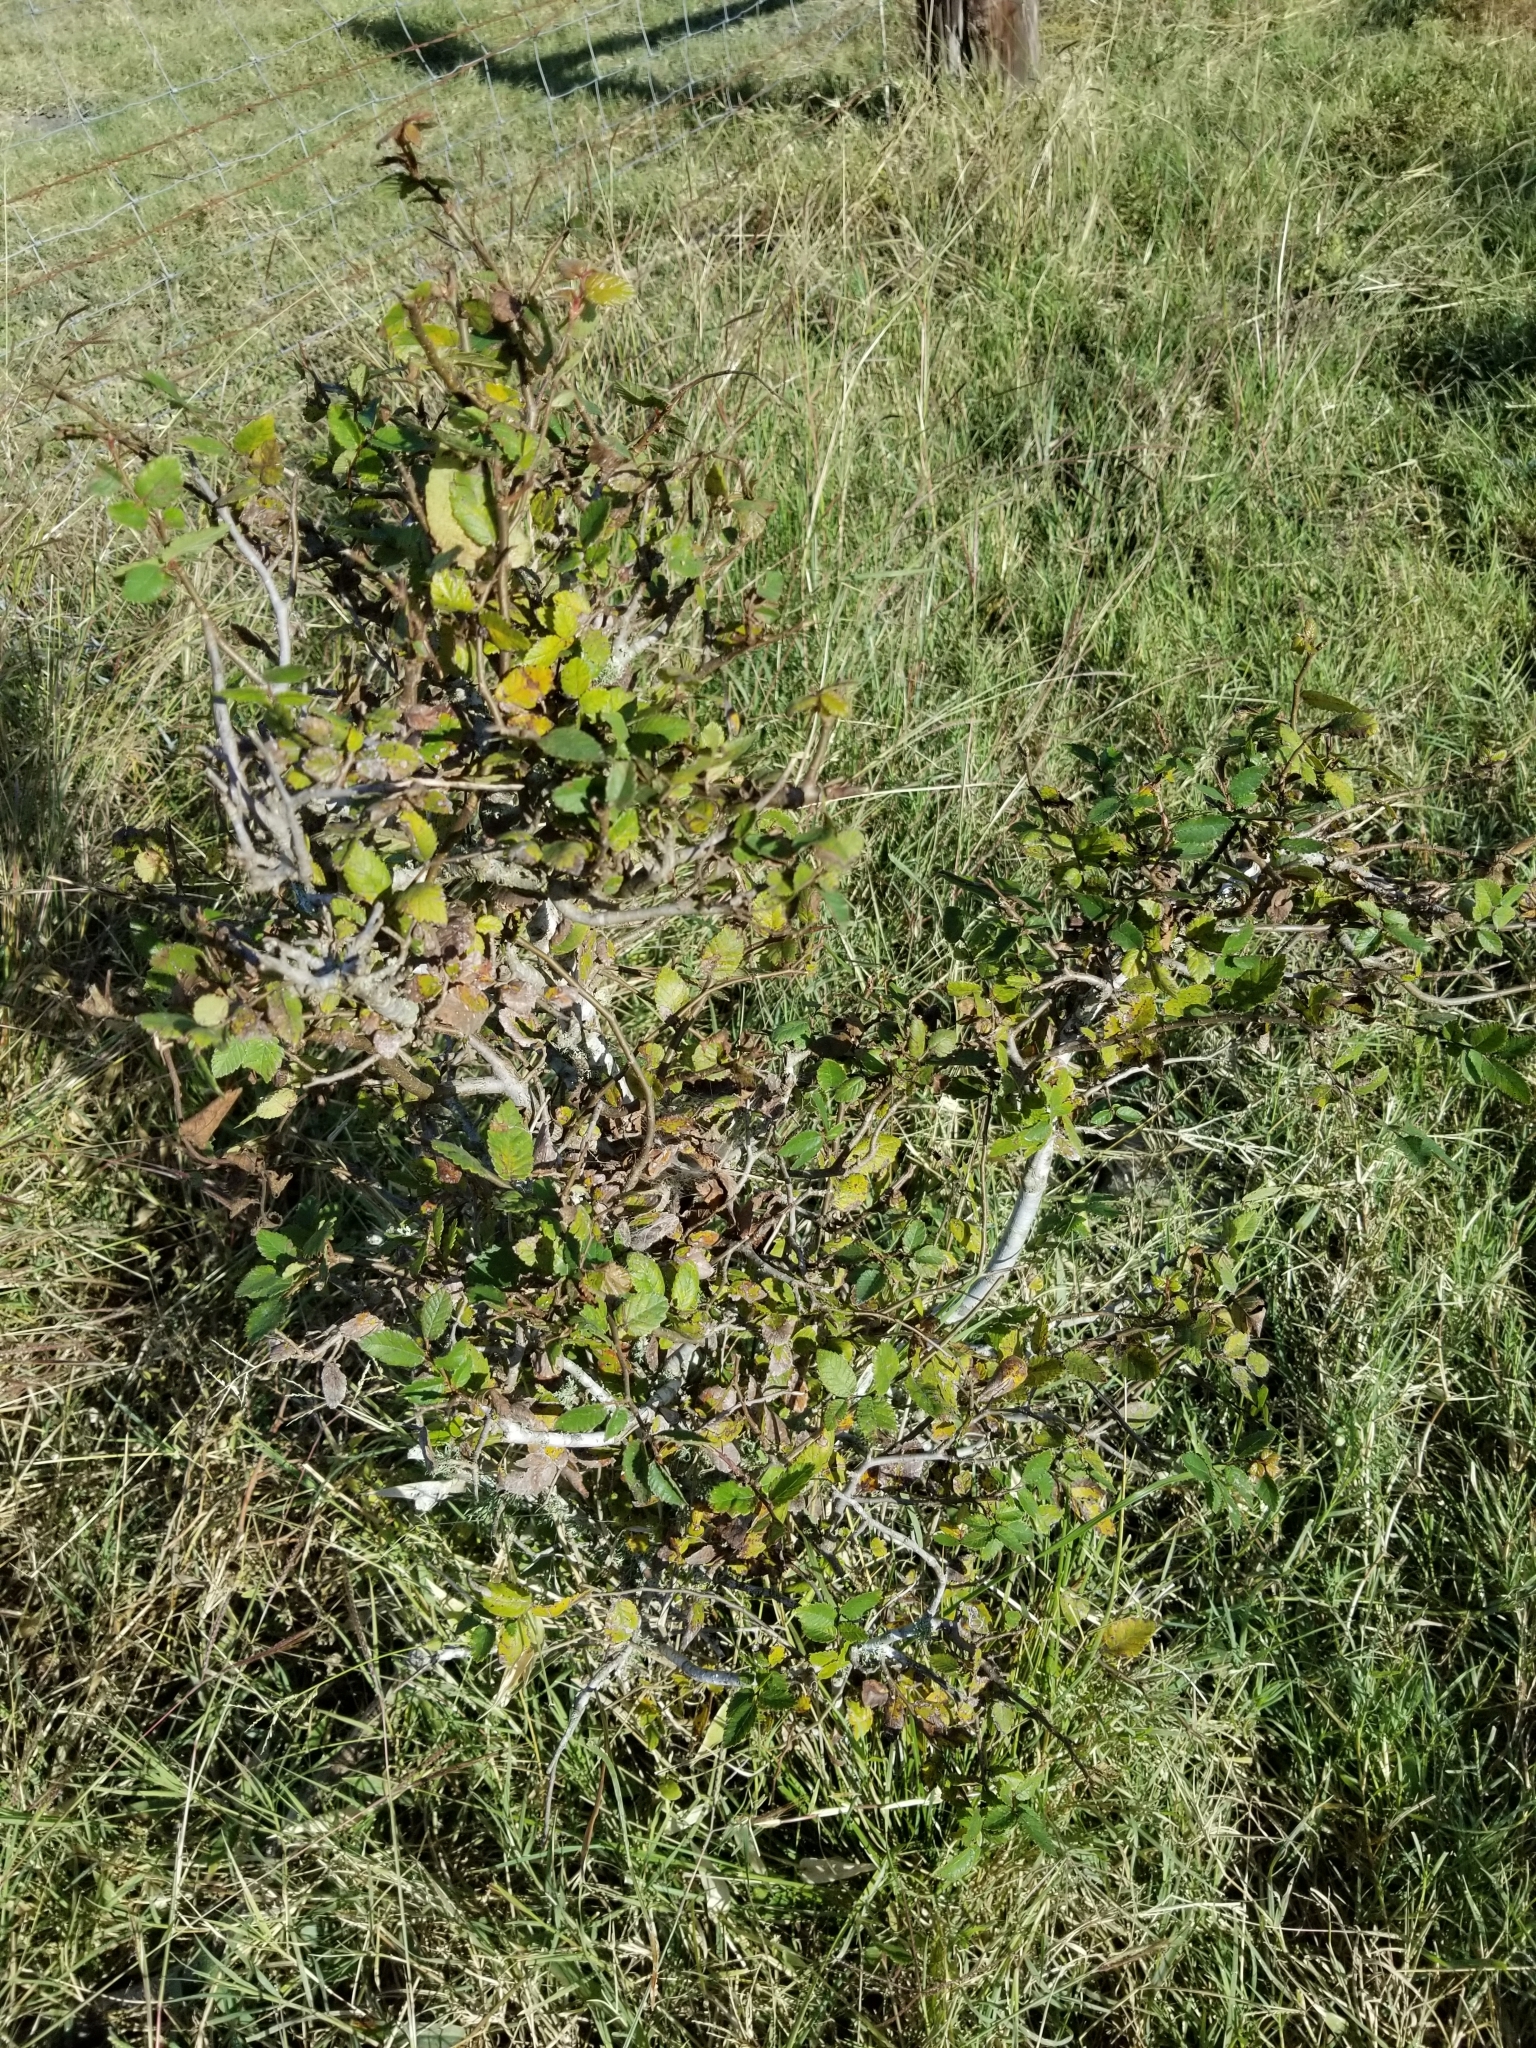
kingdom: Plantae
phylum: Tracheophyta
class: Magnoliopsida
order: Rosales
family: Ulmaceae
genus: Ulmus
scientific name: Ulmus crassifolia
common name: Basket elm
